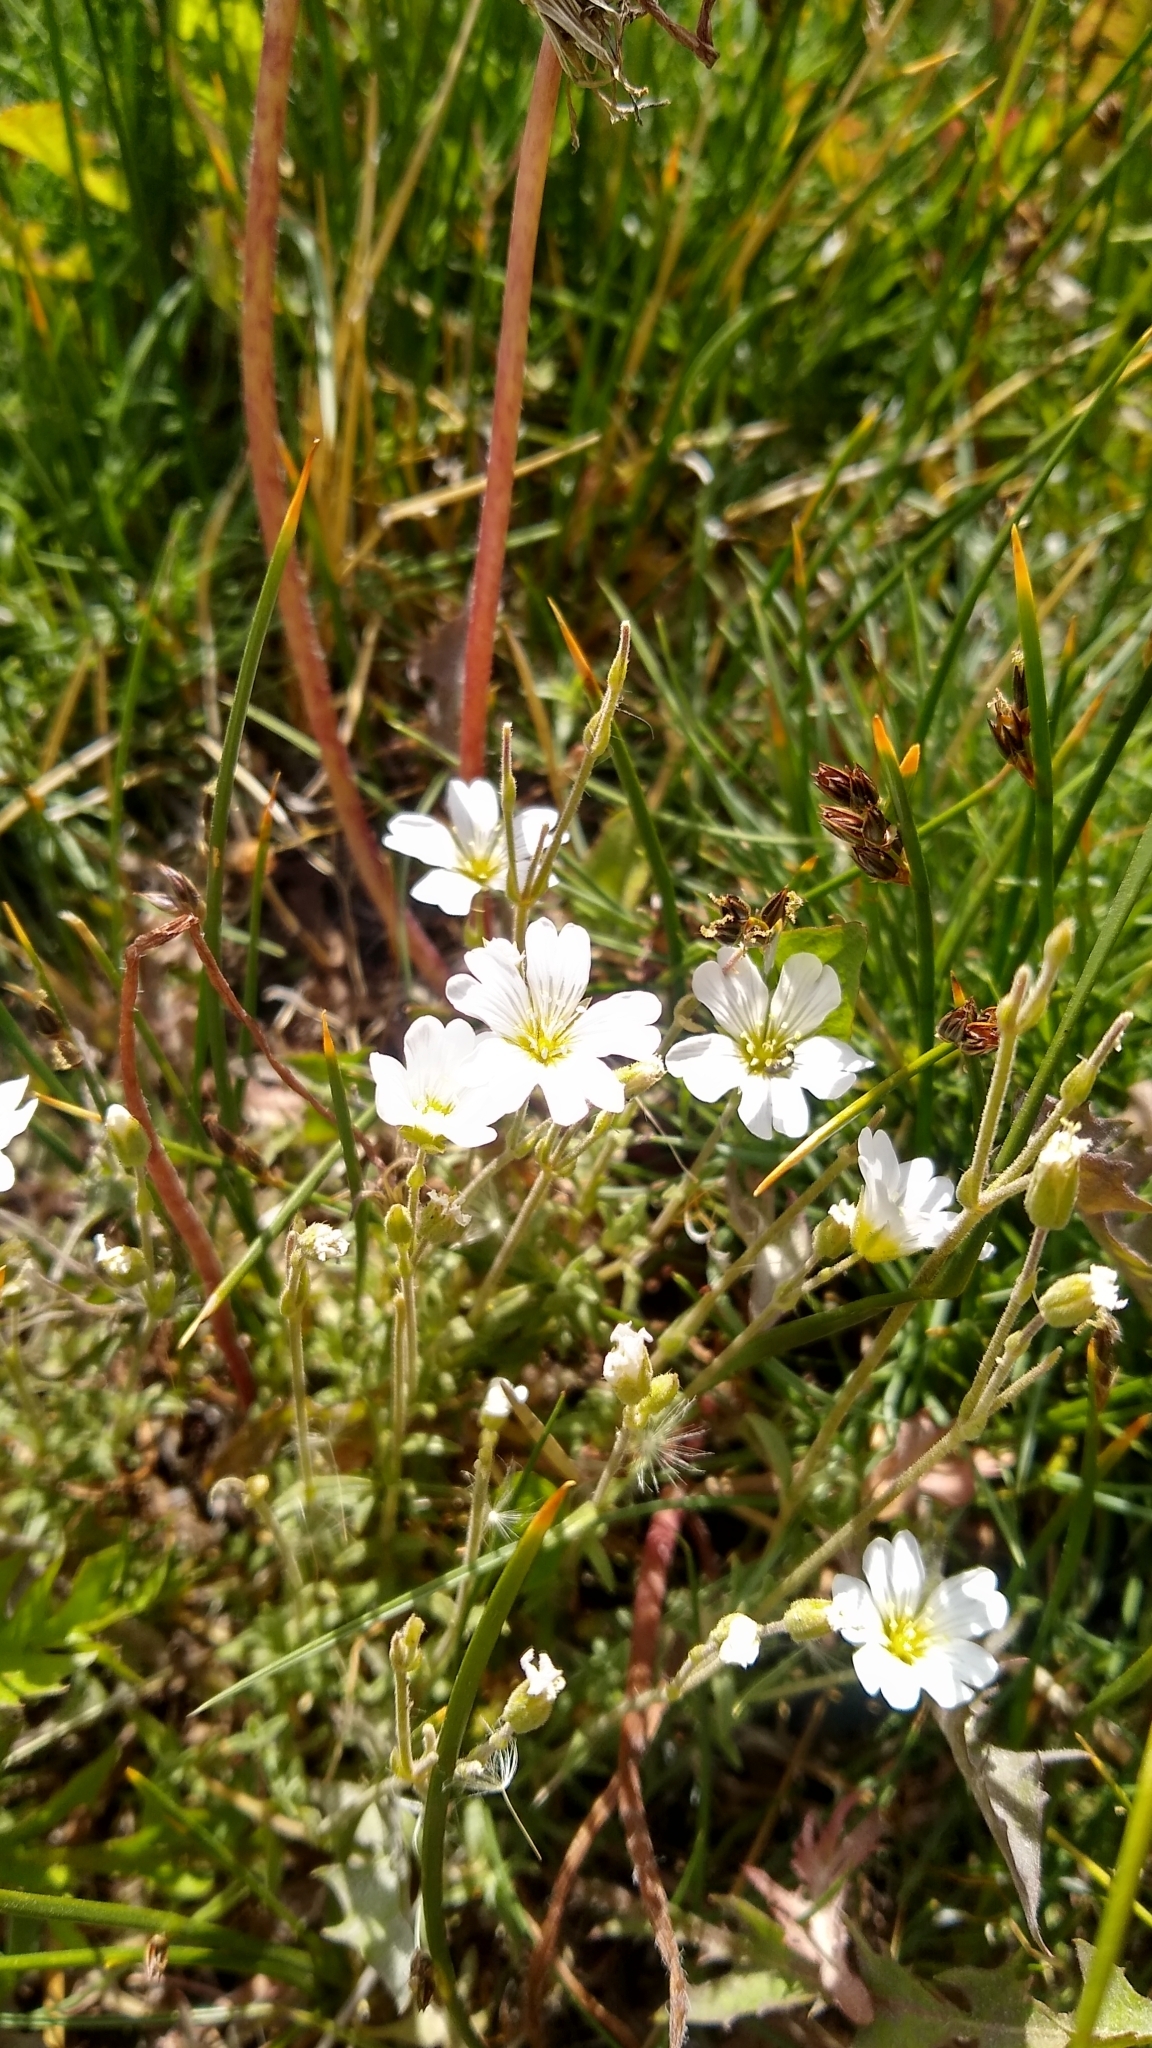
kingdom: Plantae
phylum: Tracheophyta
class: Magnoliopsida
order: Caryophyllales
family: Caryophyllaceae
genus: Cerastium
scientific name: Cerastium arvense
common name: Field mouse-ear
